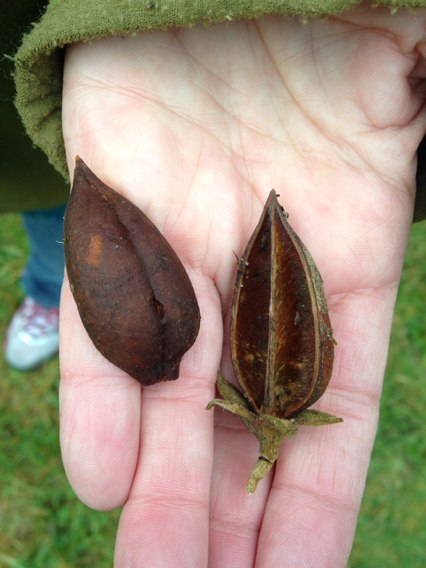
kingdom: Plantae
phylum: Tracheophyta
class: Magnoliopsida
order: Lamiales
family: Paulowniaceae
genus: Paulownia
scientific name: Paulownia tomentosa
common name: Foxglove-tree
